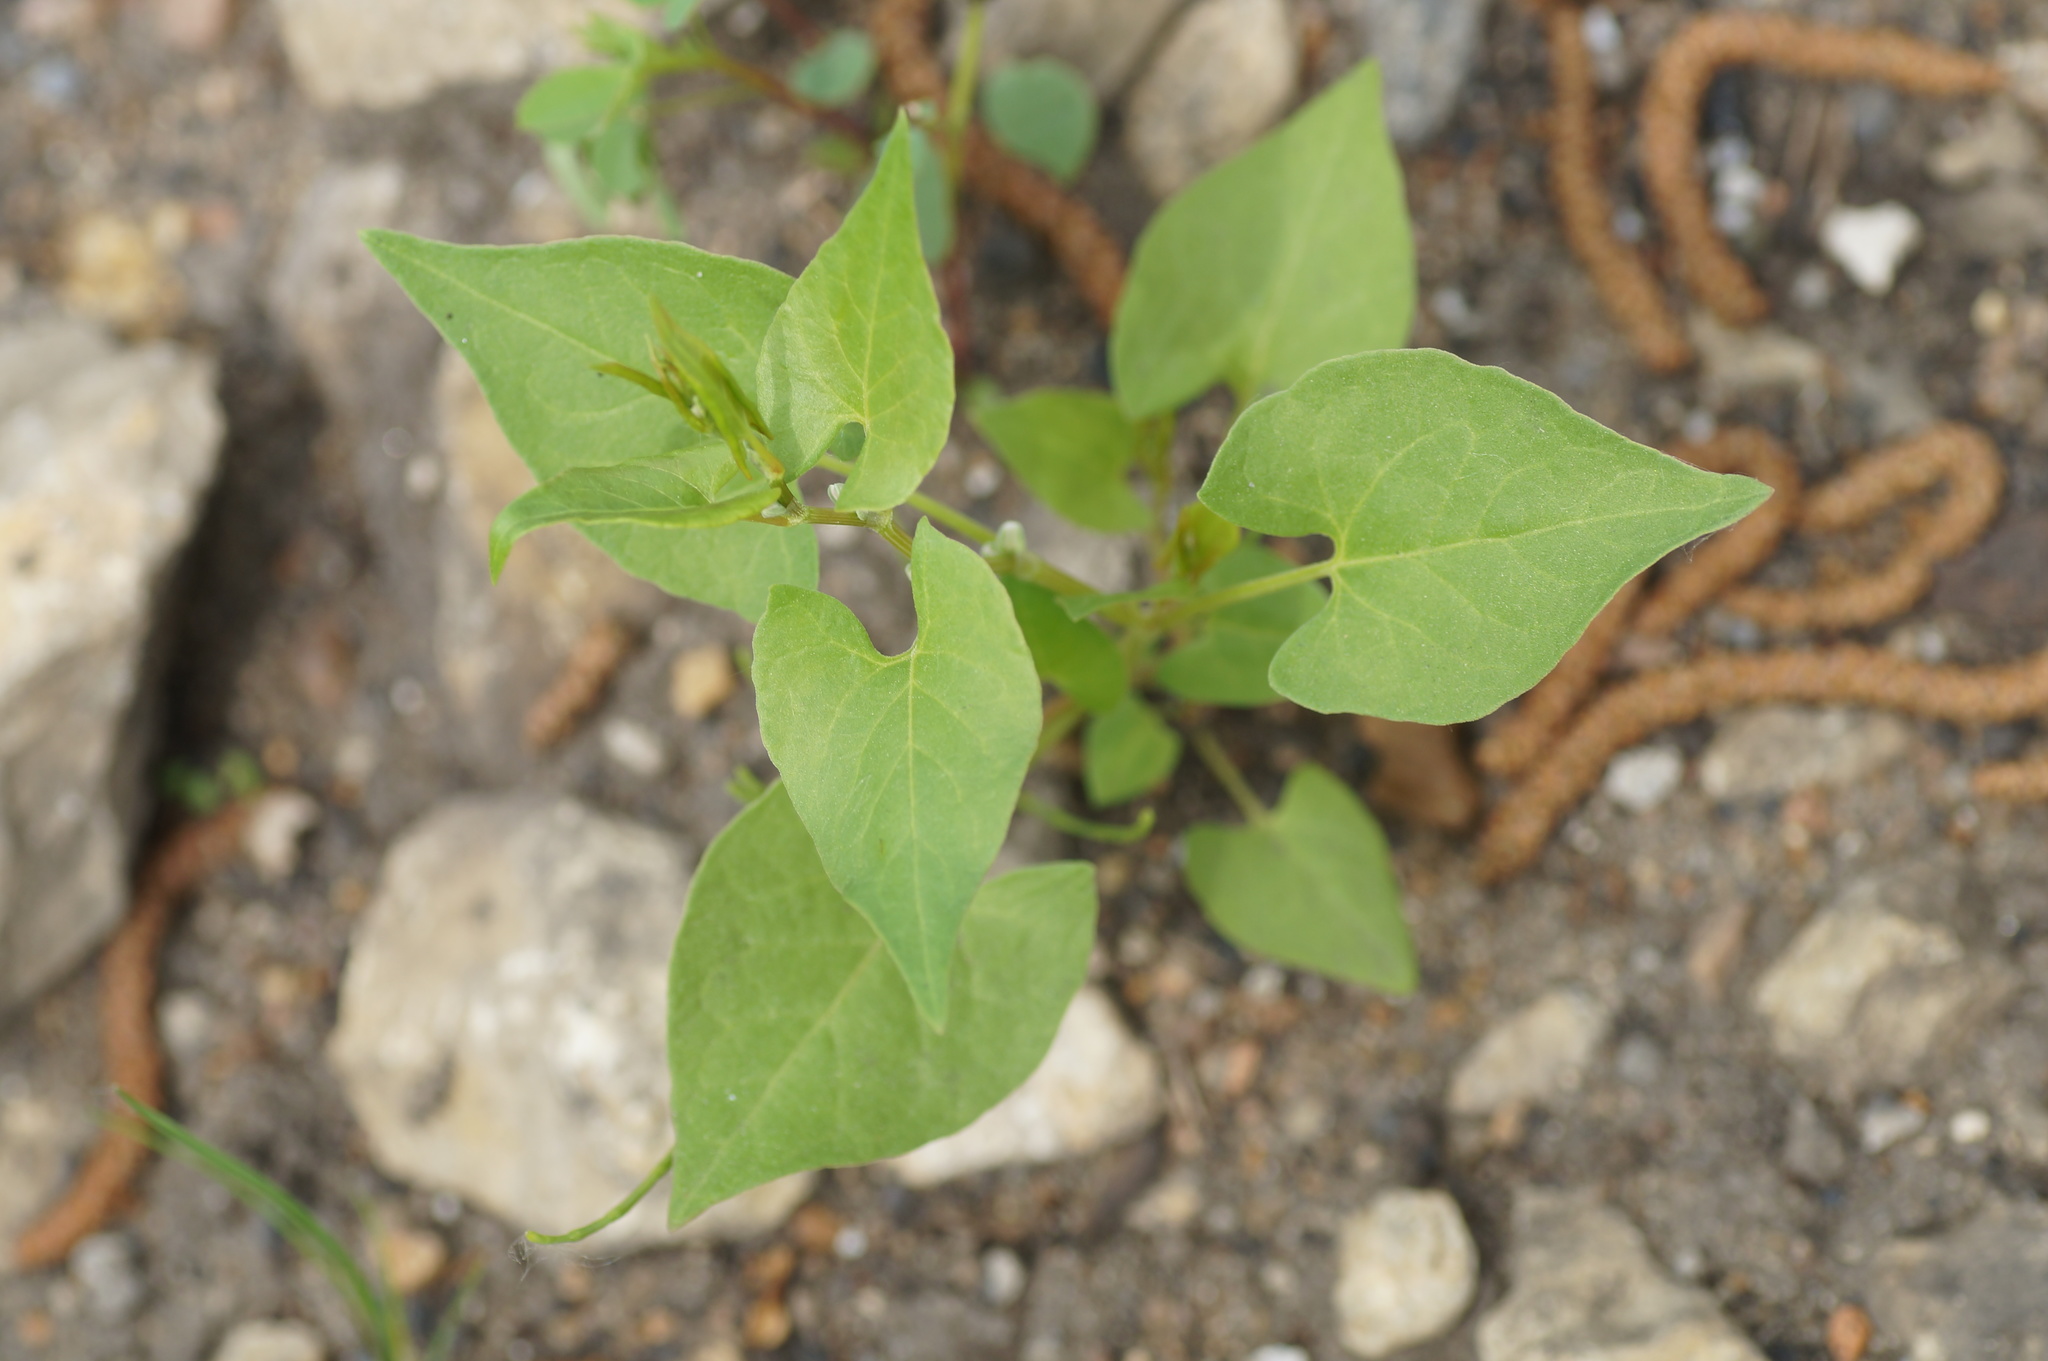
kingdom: Plantae
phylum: Tracheophyta
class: Magnoliopsida
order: Caryophyllales
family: Polygonaceae
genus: Fallopia
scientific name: Fallopia convolvulus
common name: Black bindweed
